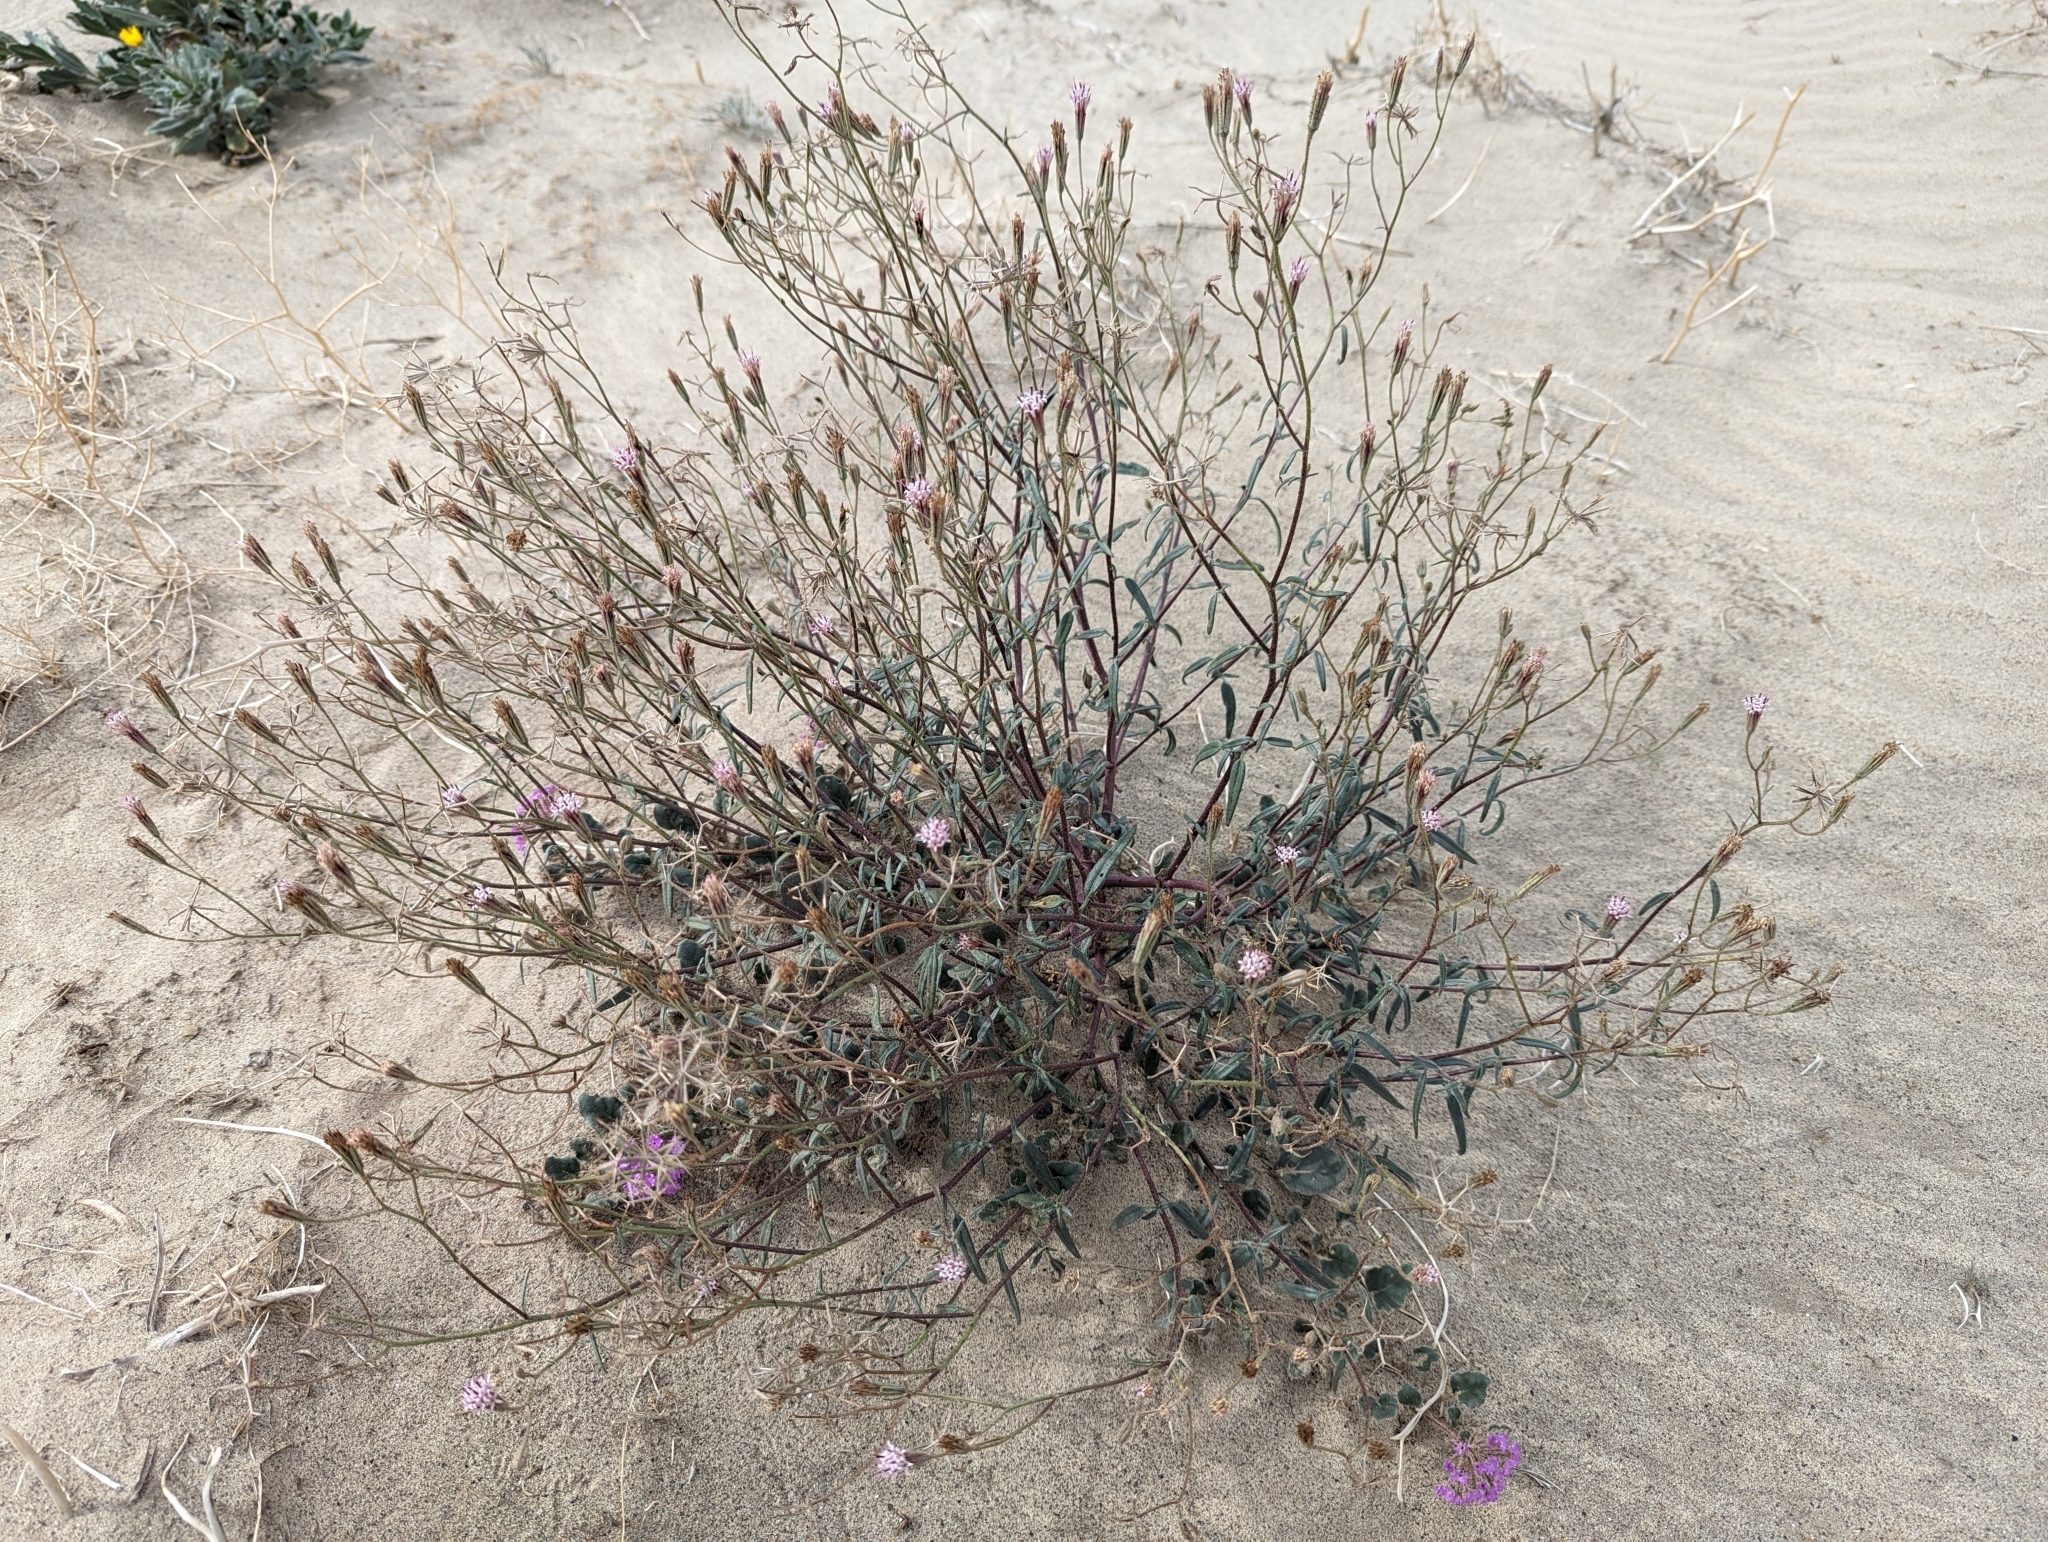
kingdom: Plantae
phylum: Tracheophyta
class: Magnoliopsida
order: Asterales
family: Asteraceae
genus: Palafoxia
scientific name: Palafoxia arida
